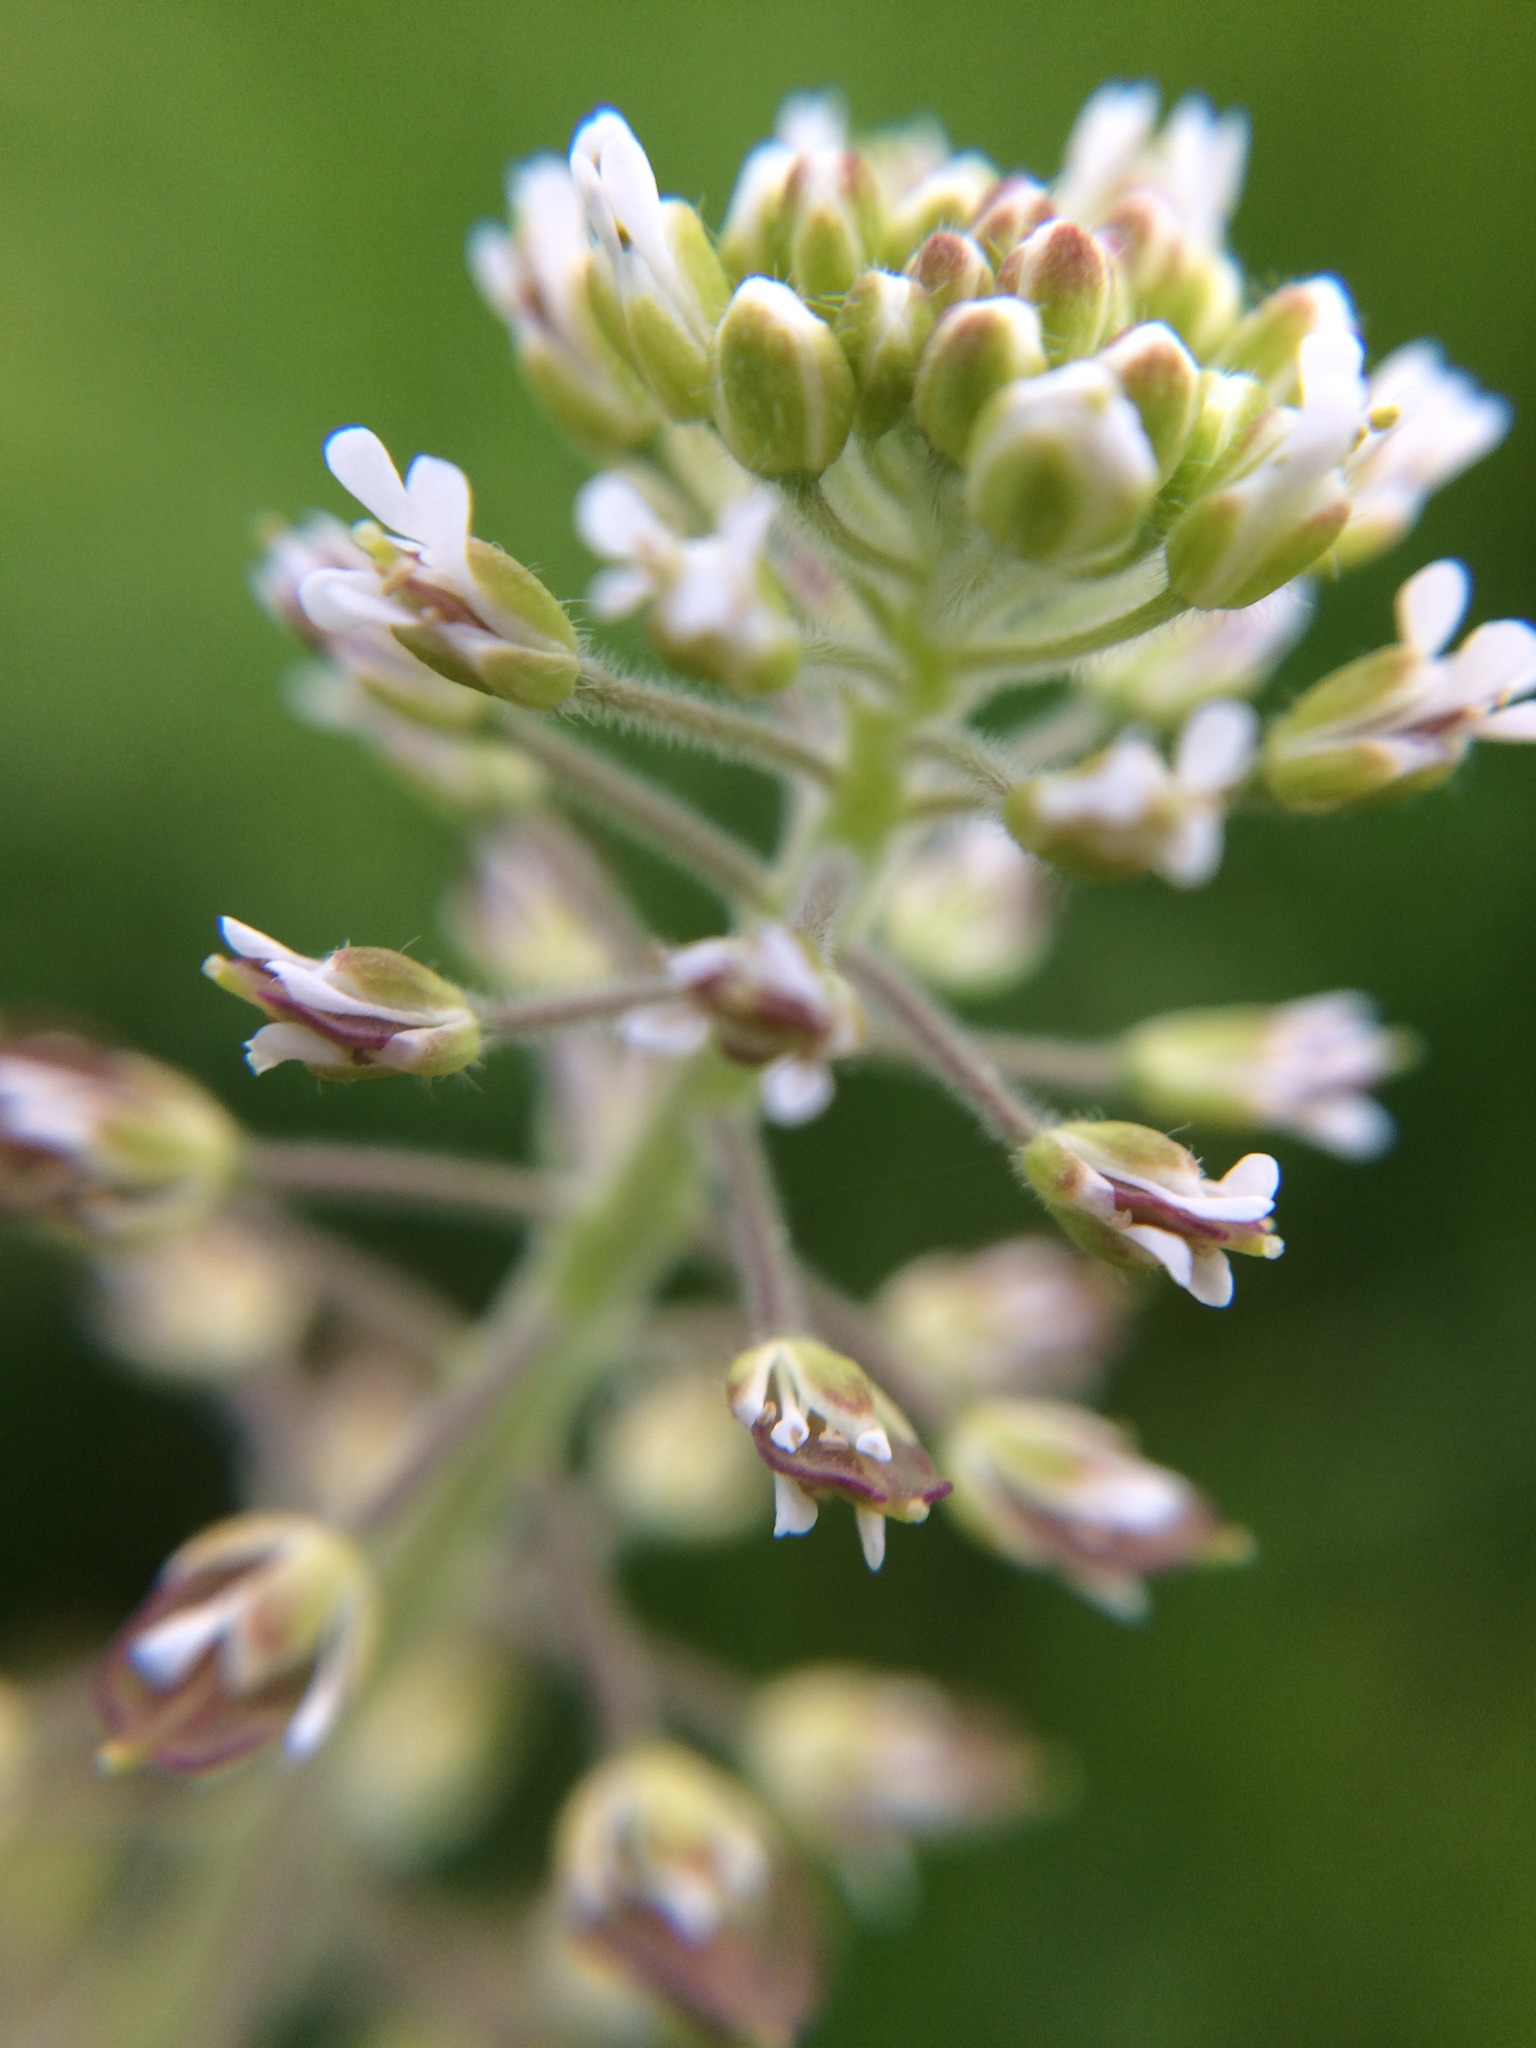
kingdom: Plantae
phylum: Tracheophyta
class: Magnoliopsida
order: Brassicales
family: Brassicaceae
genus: Lepidium
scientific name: Lepidium campestre
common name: Field pepperwort
